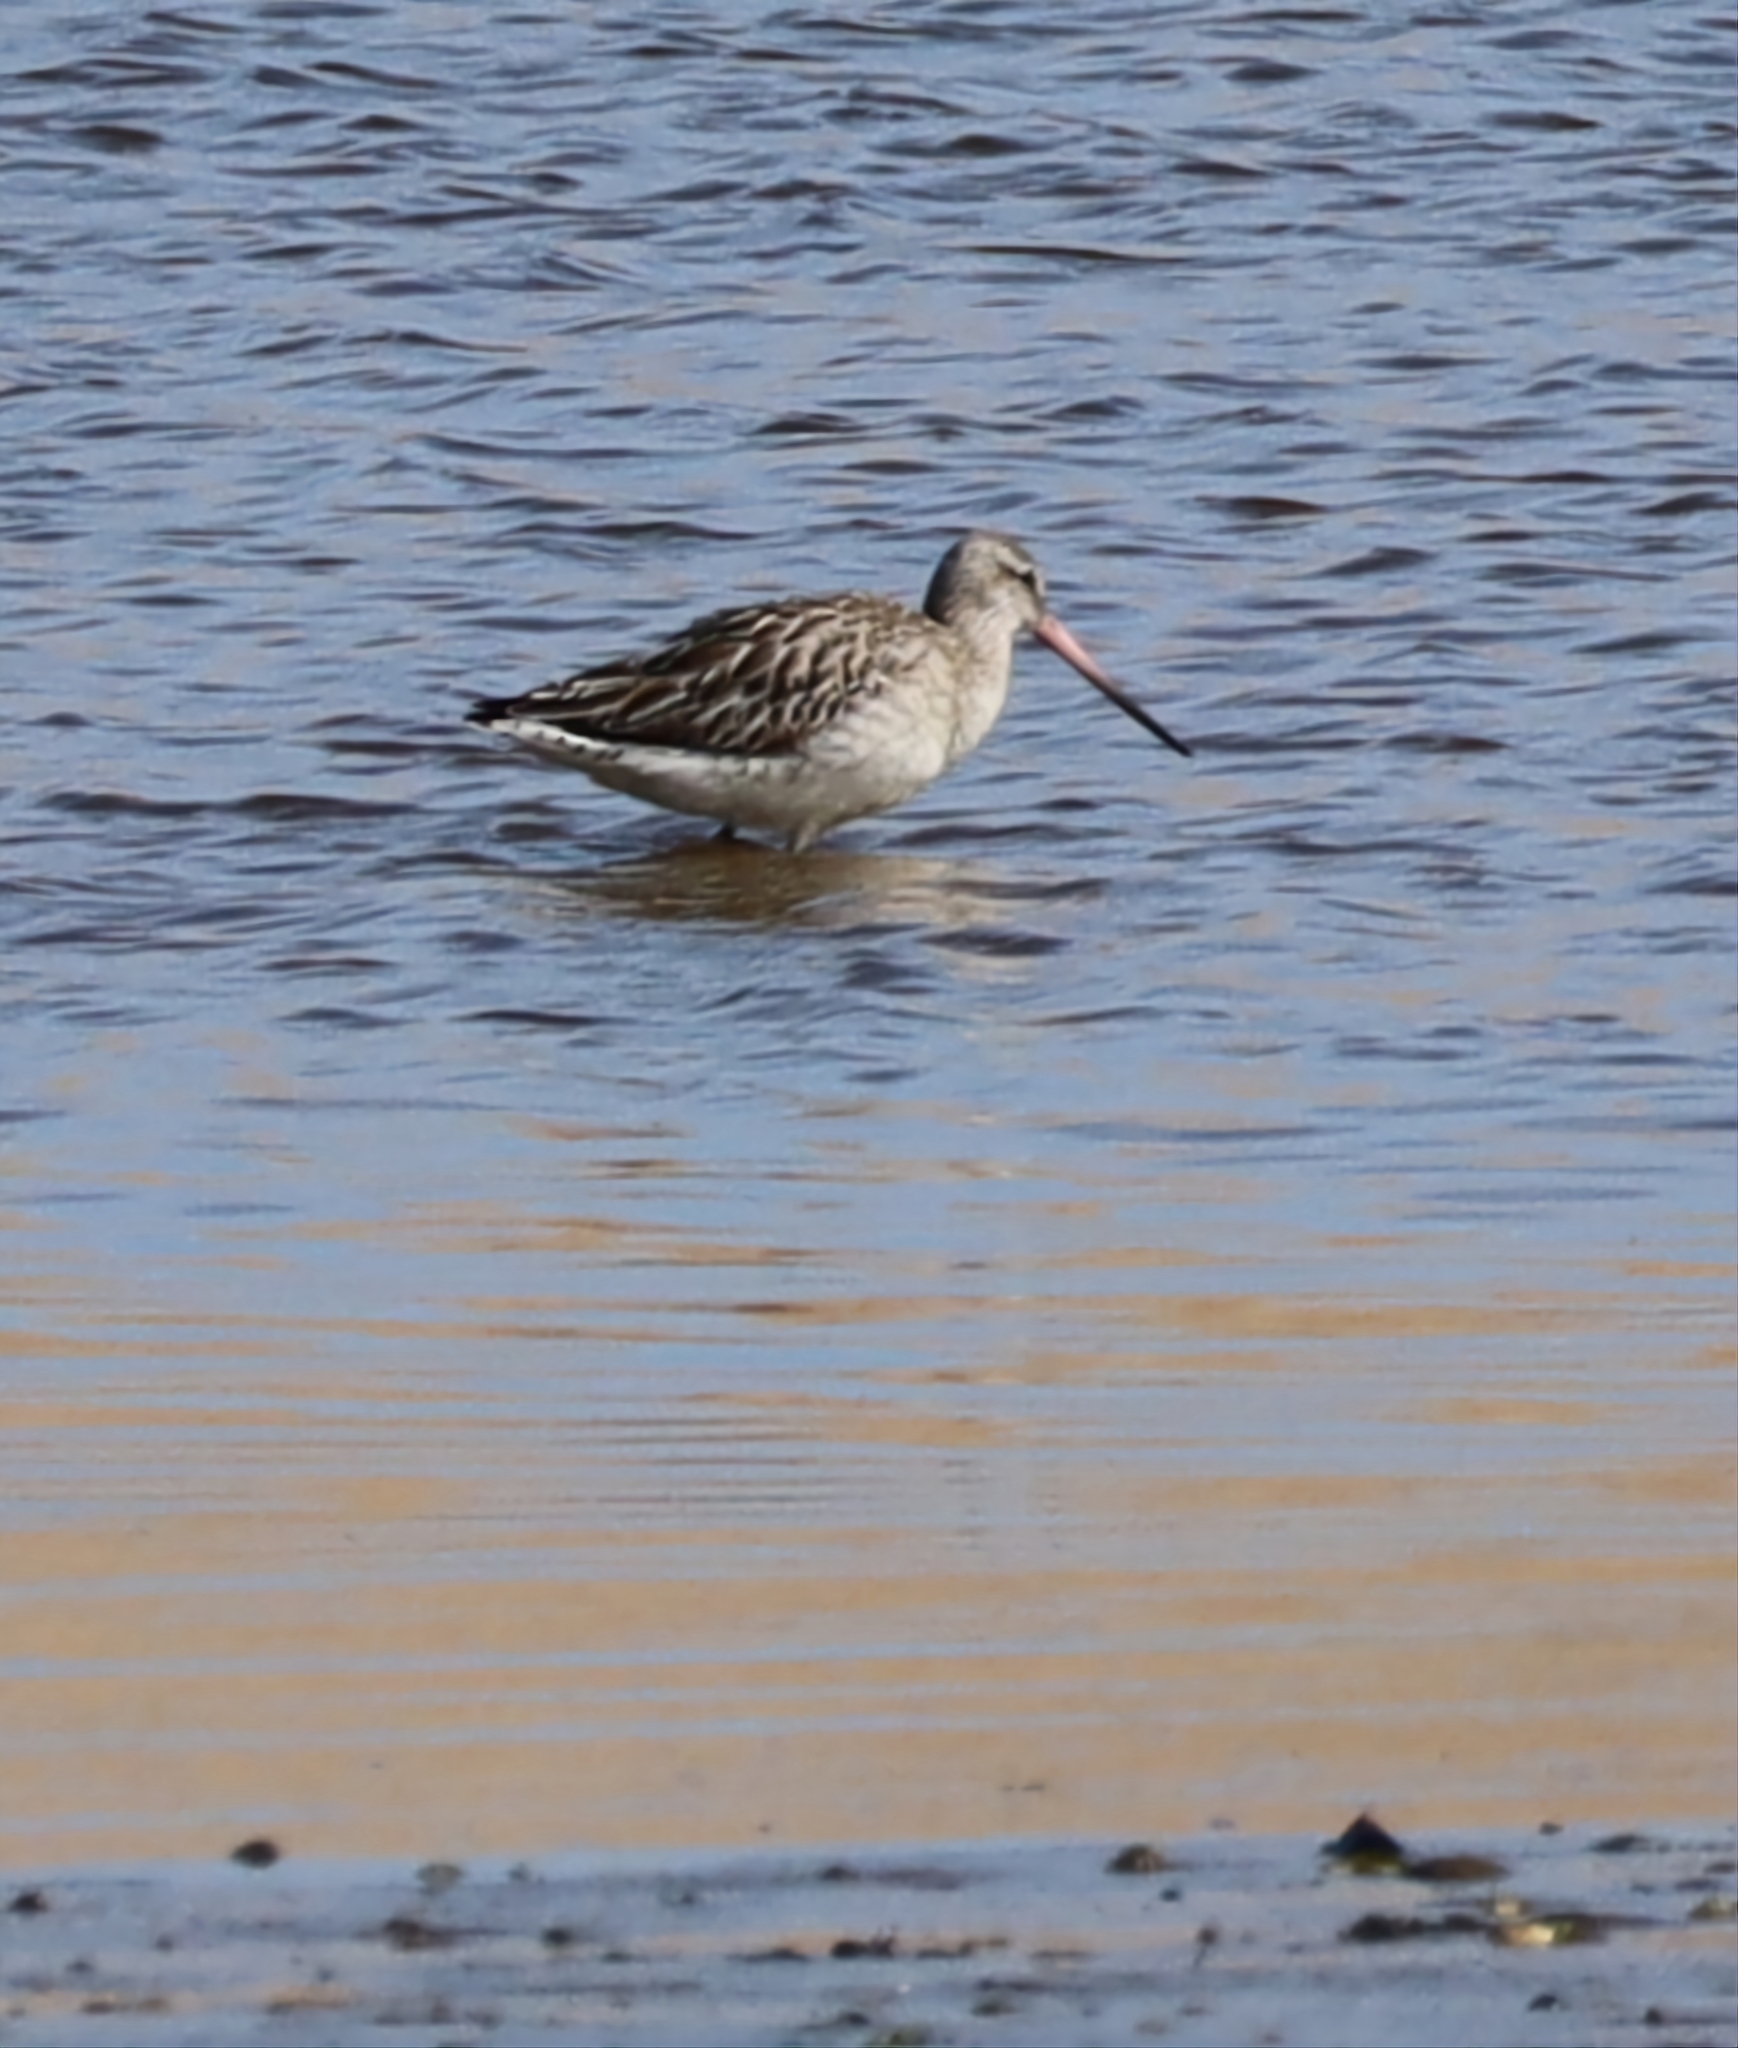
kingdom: Animalia
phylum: Chordata
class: Aves
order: Charadriiformes
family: Scolopacidae
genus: Limosa
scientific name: Limosa lapponica
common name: Bar-tailed godwit
